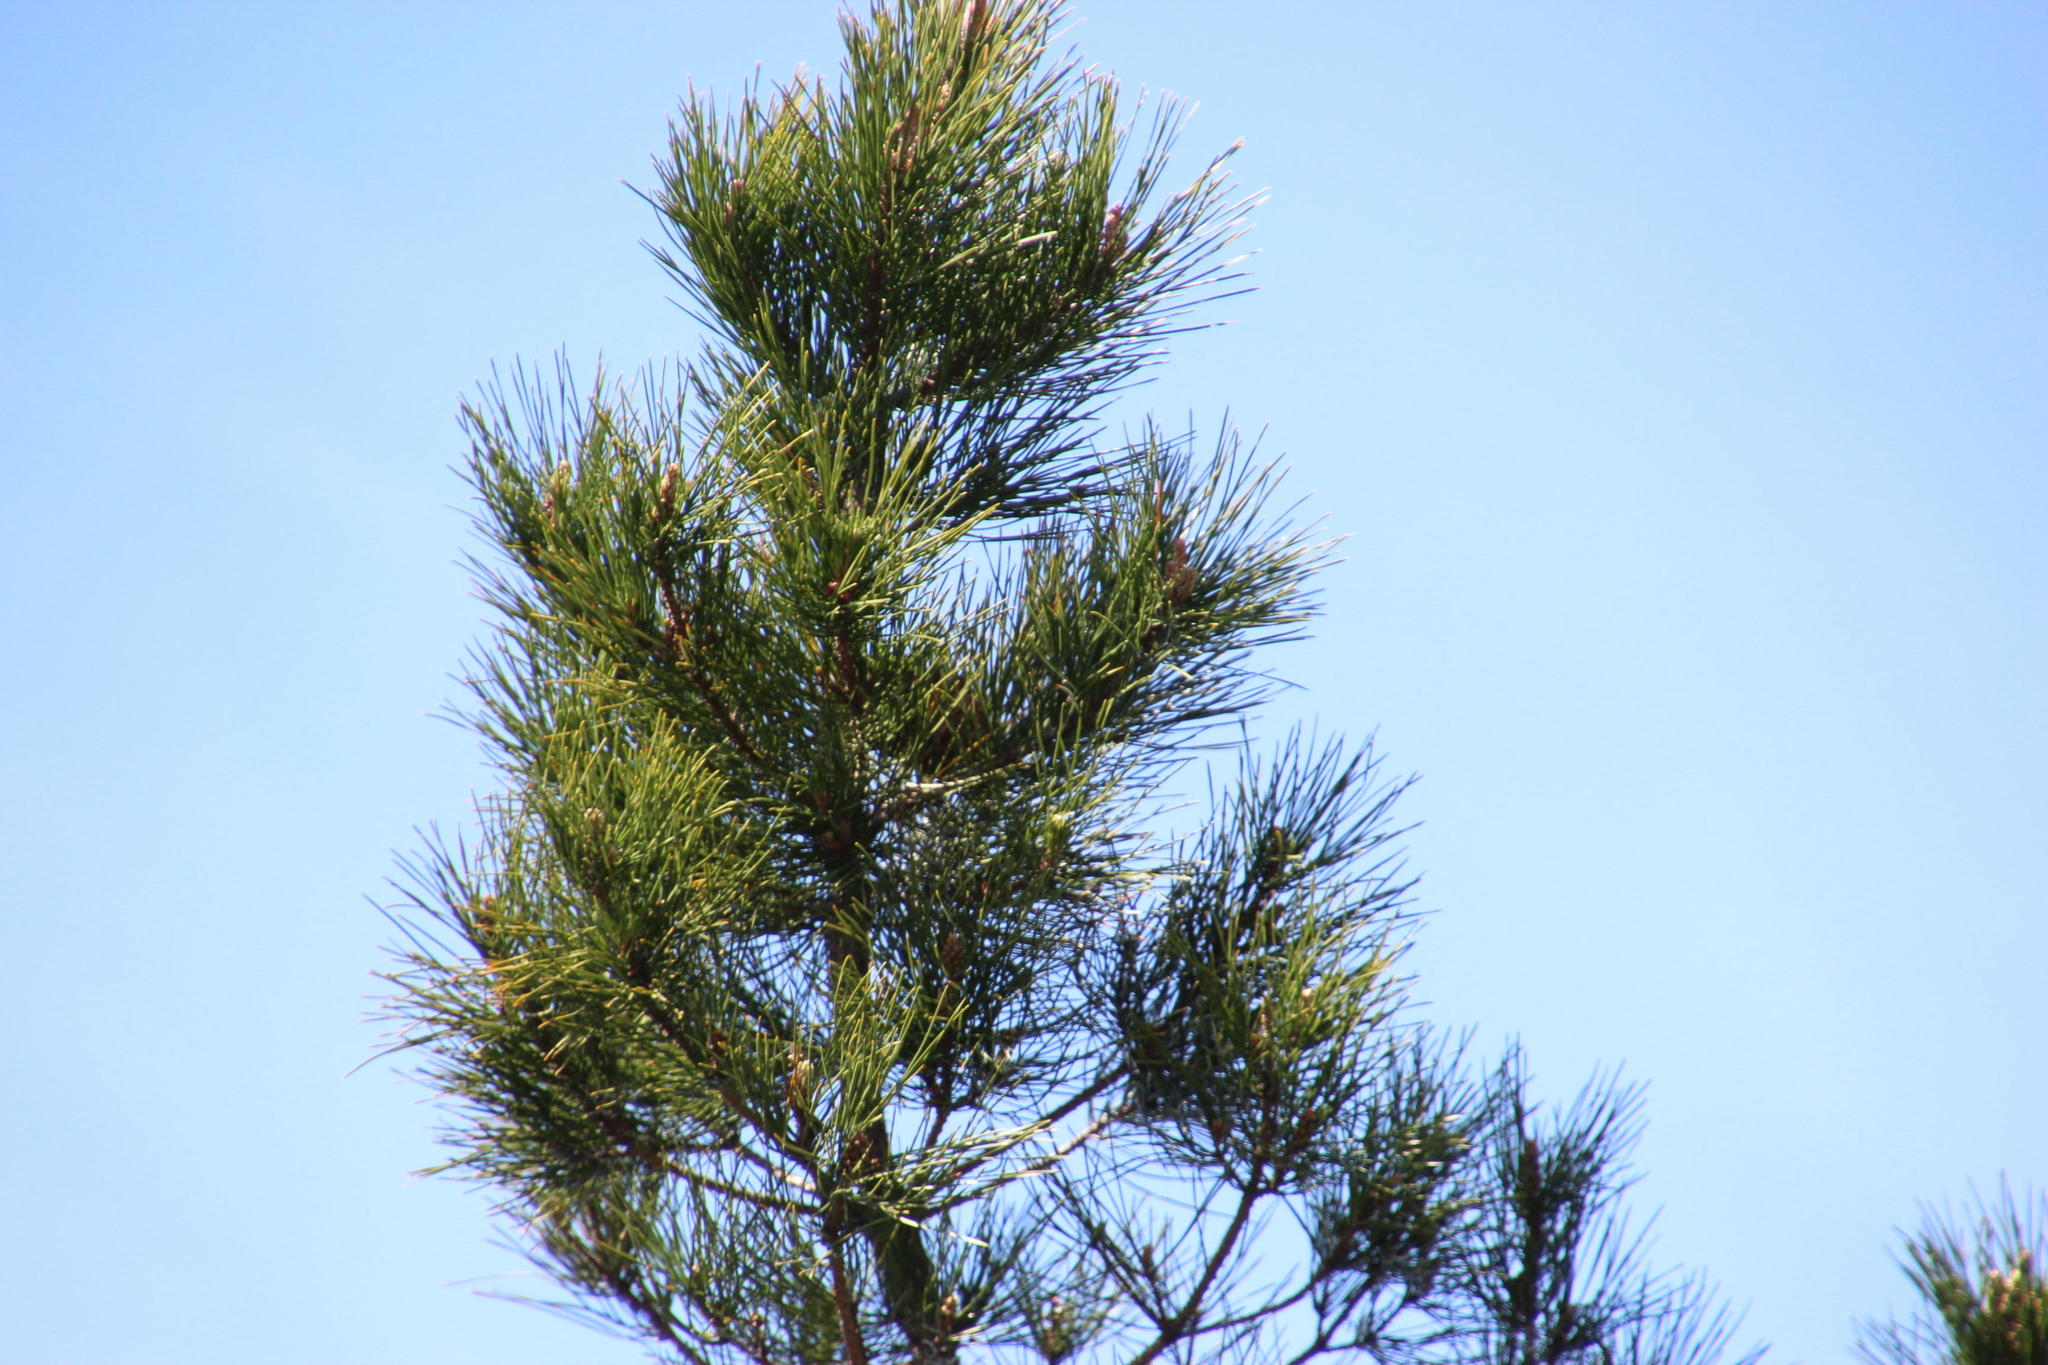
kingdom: Plantae
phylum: Tracheophyta
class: Pinopsida
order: Pinales
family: Pinaceae
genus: Pinus
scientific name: Pinus radiata
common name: Monterey pine
